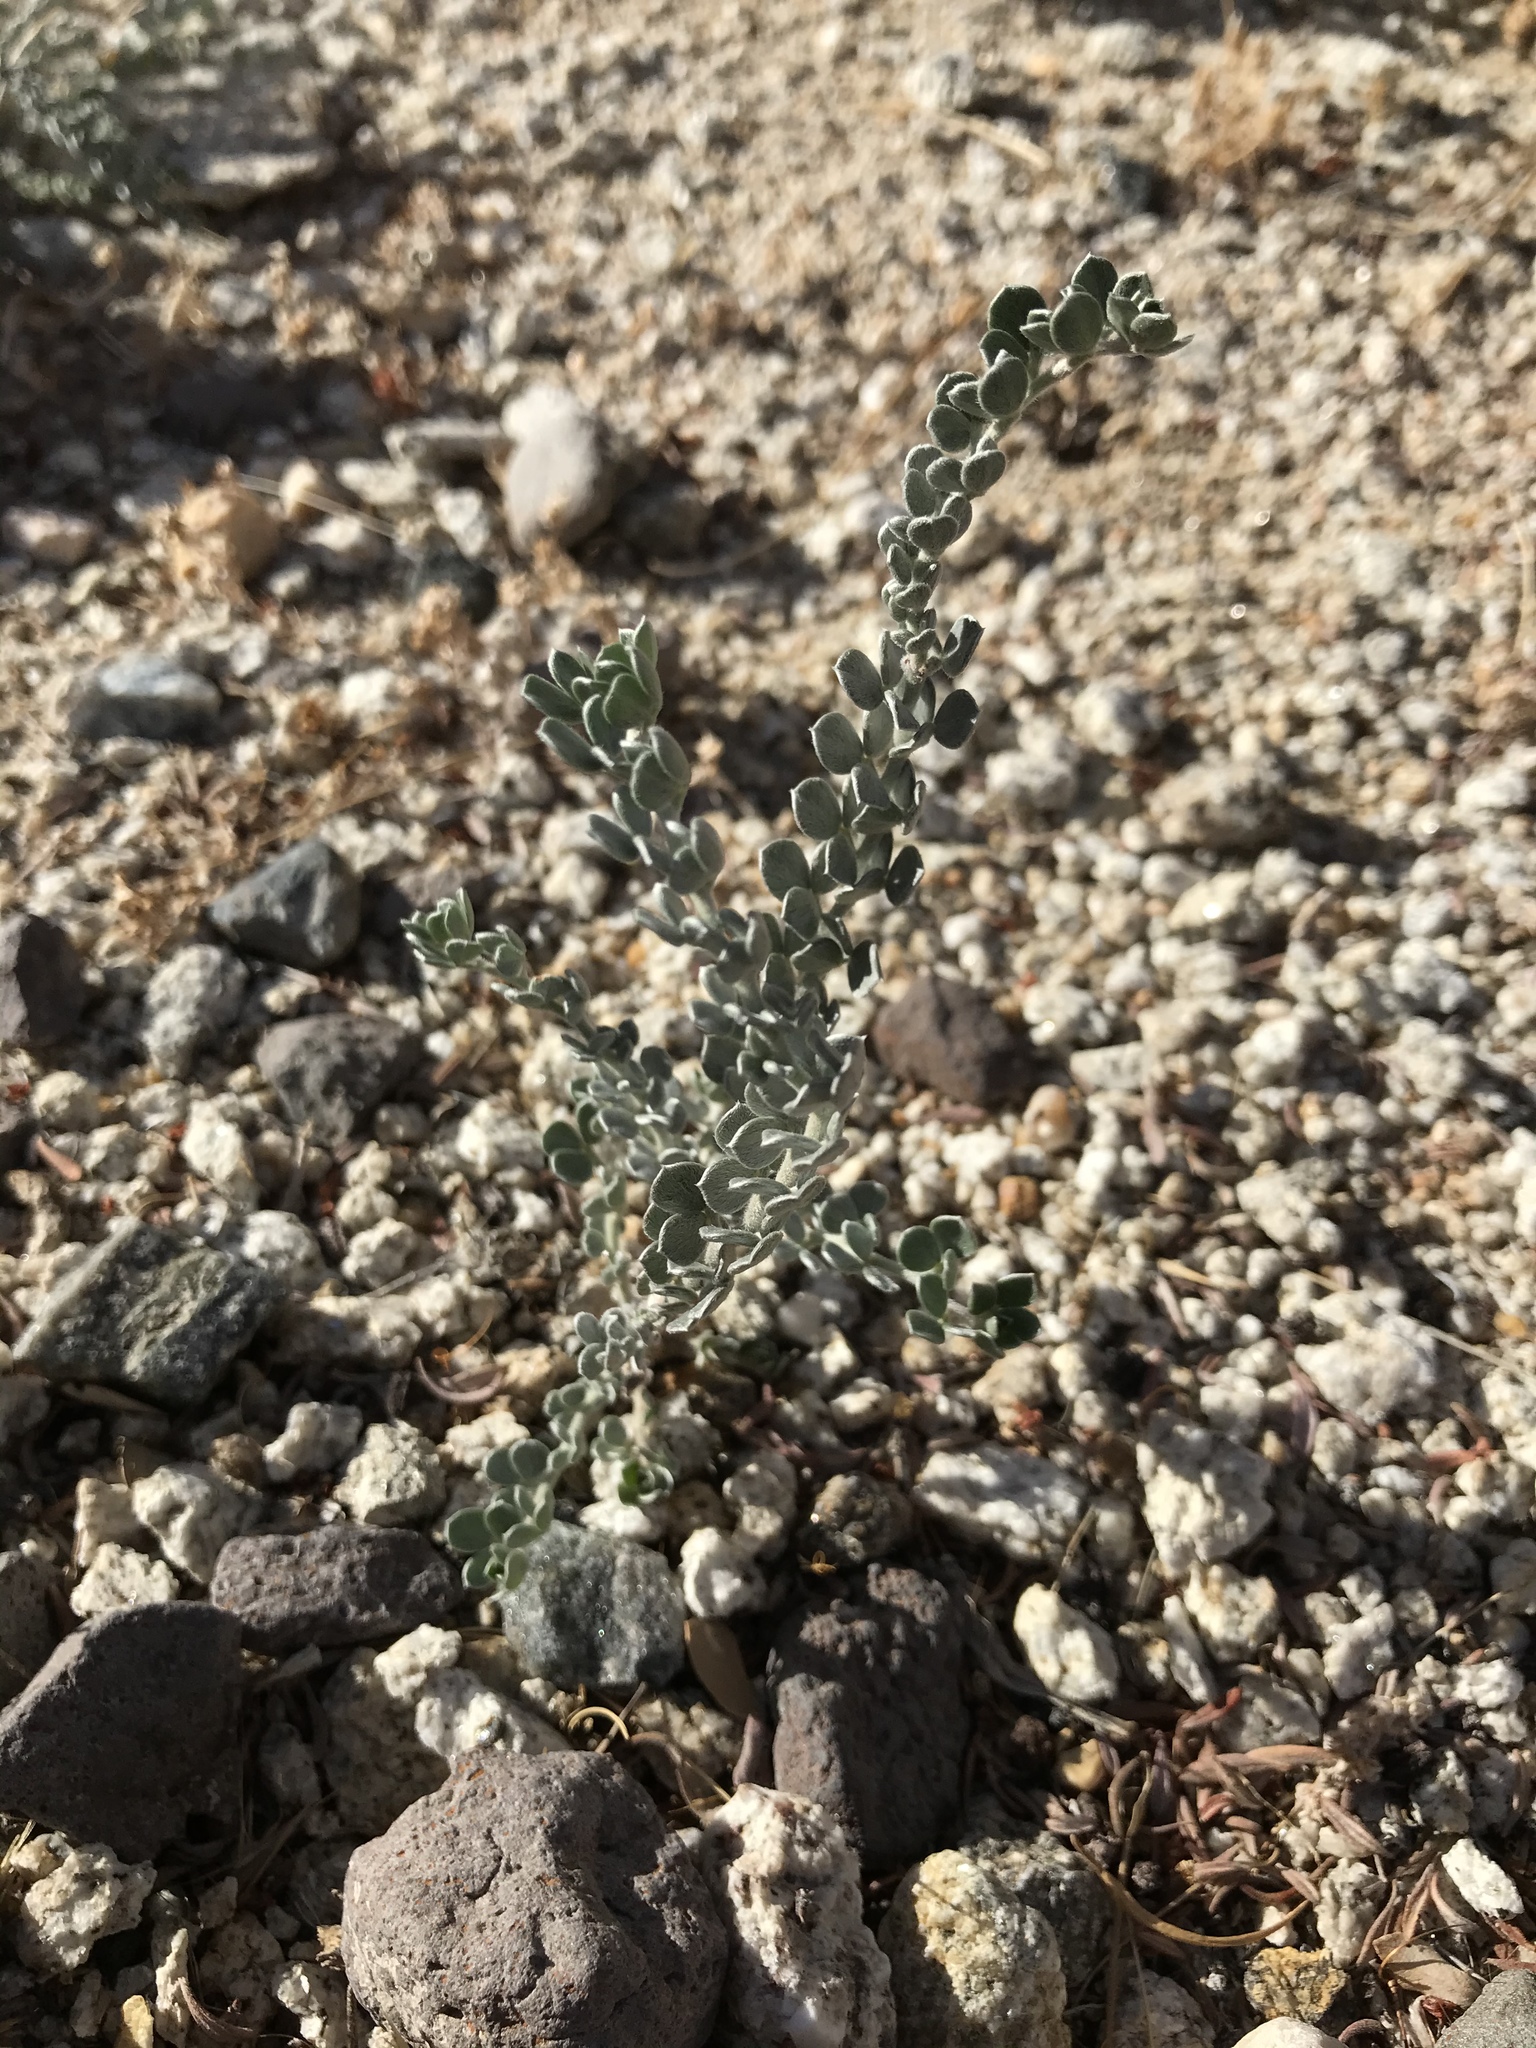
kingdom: Plantae
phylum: Tracheophyta
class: Magnoliopsida
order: Fabales
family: Fabaceae
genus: Acmispon
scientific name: Acmispon argophyllus
